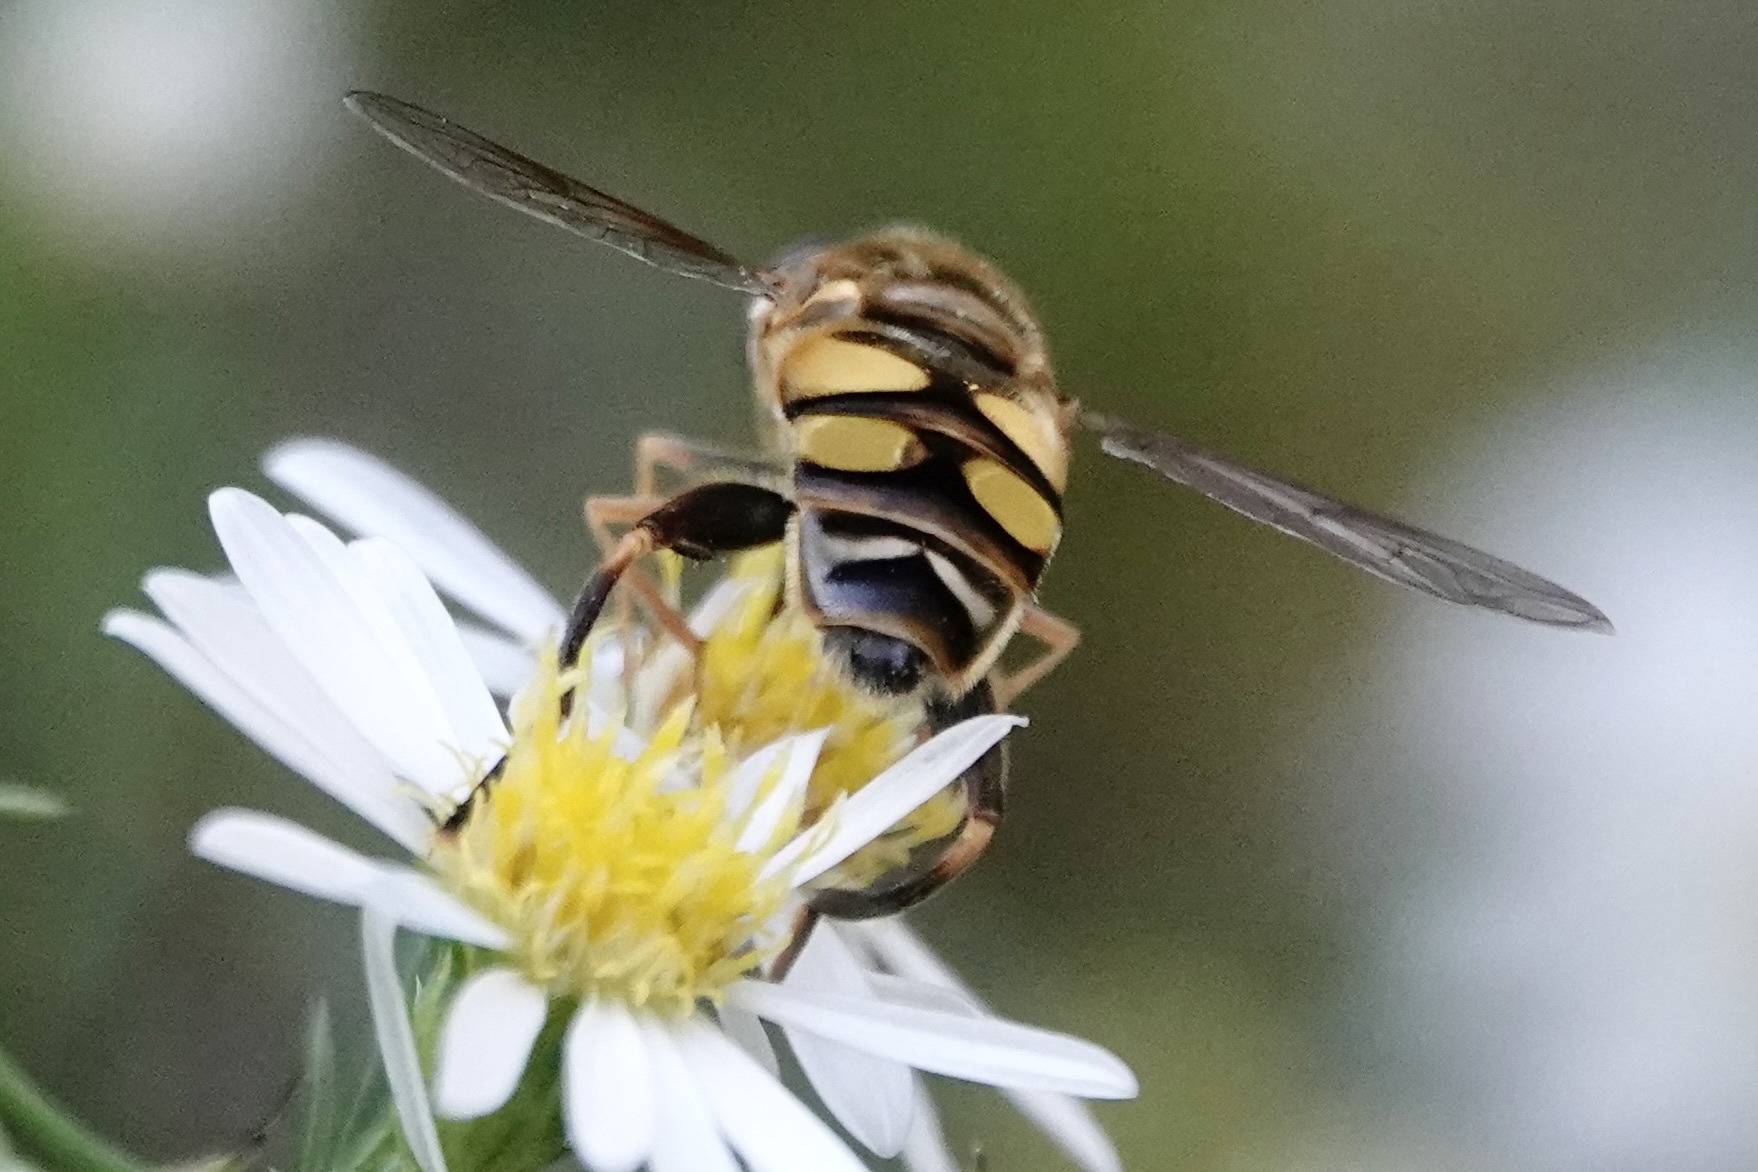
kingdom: Animalia
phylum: Arthropoda
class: Insecta
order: Diptera
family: Syrphidae
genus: Helophilus
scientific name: Helophilus fasciatus
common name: Narrow-headed marsh fly
